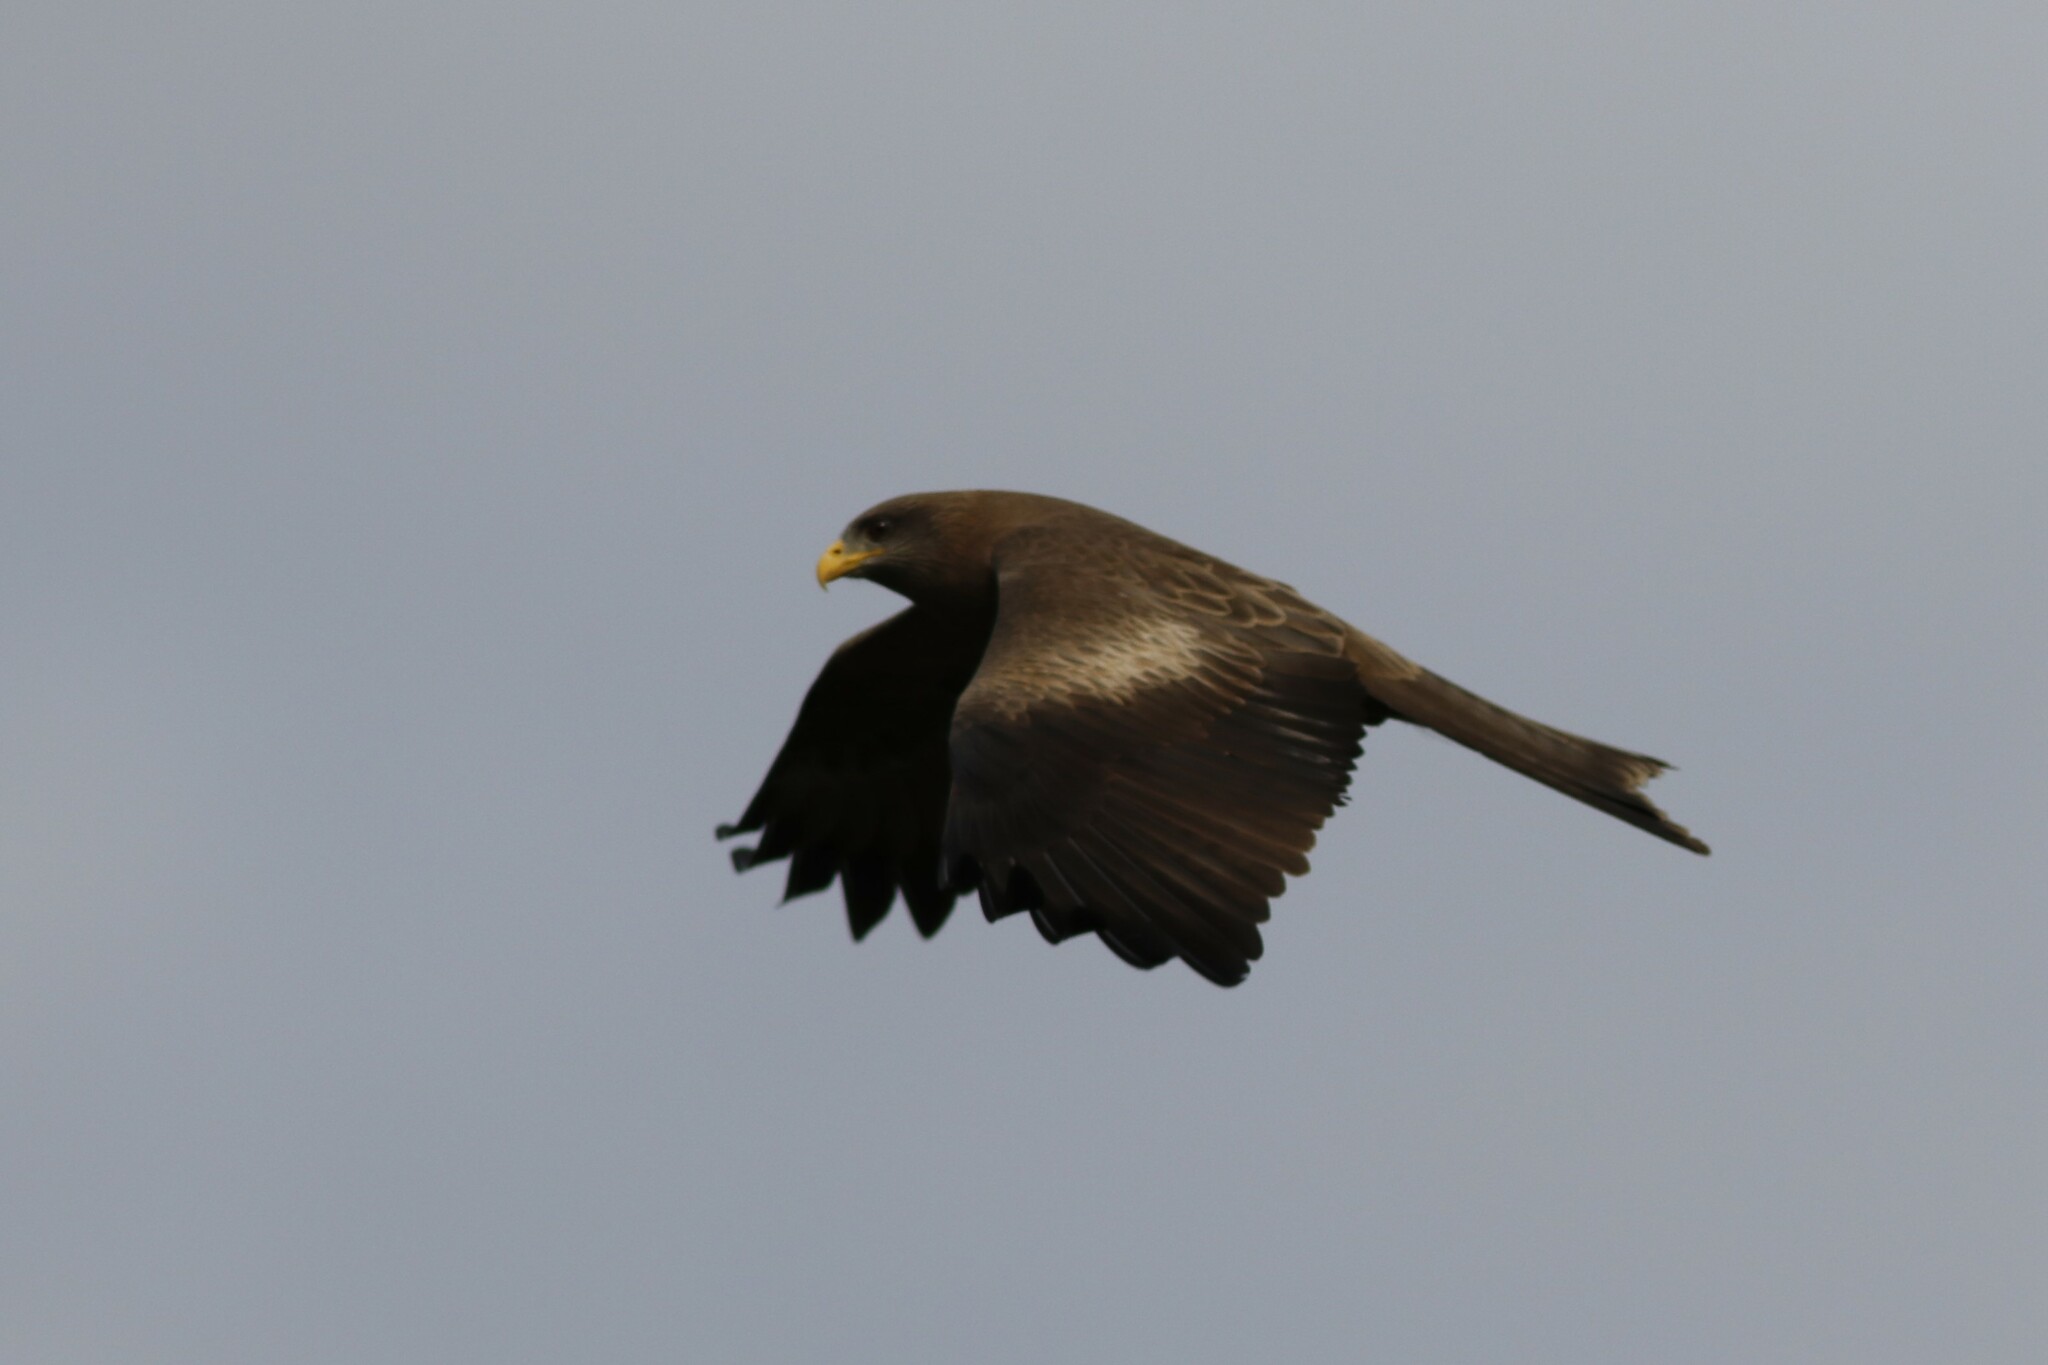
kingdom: Animalia
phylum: Chordata
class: Aves
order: Accipitriformes
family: Accipitridae
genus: Milvus
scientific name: Milvus migrans
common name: Black kite
